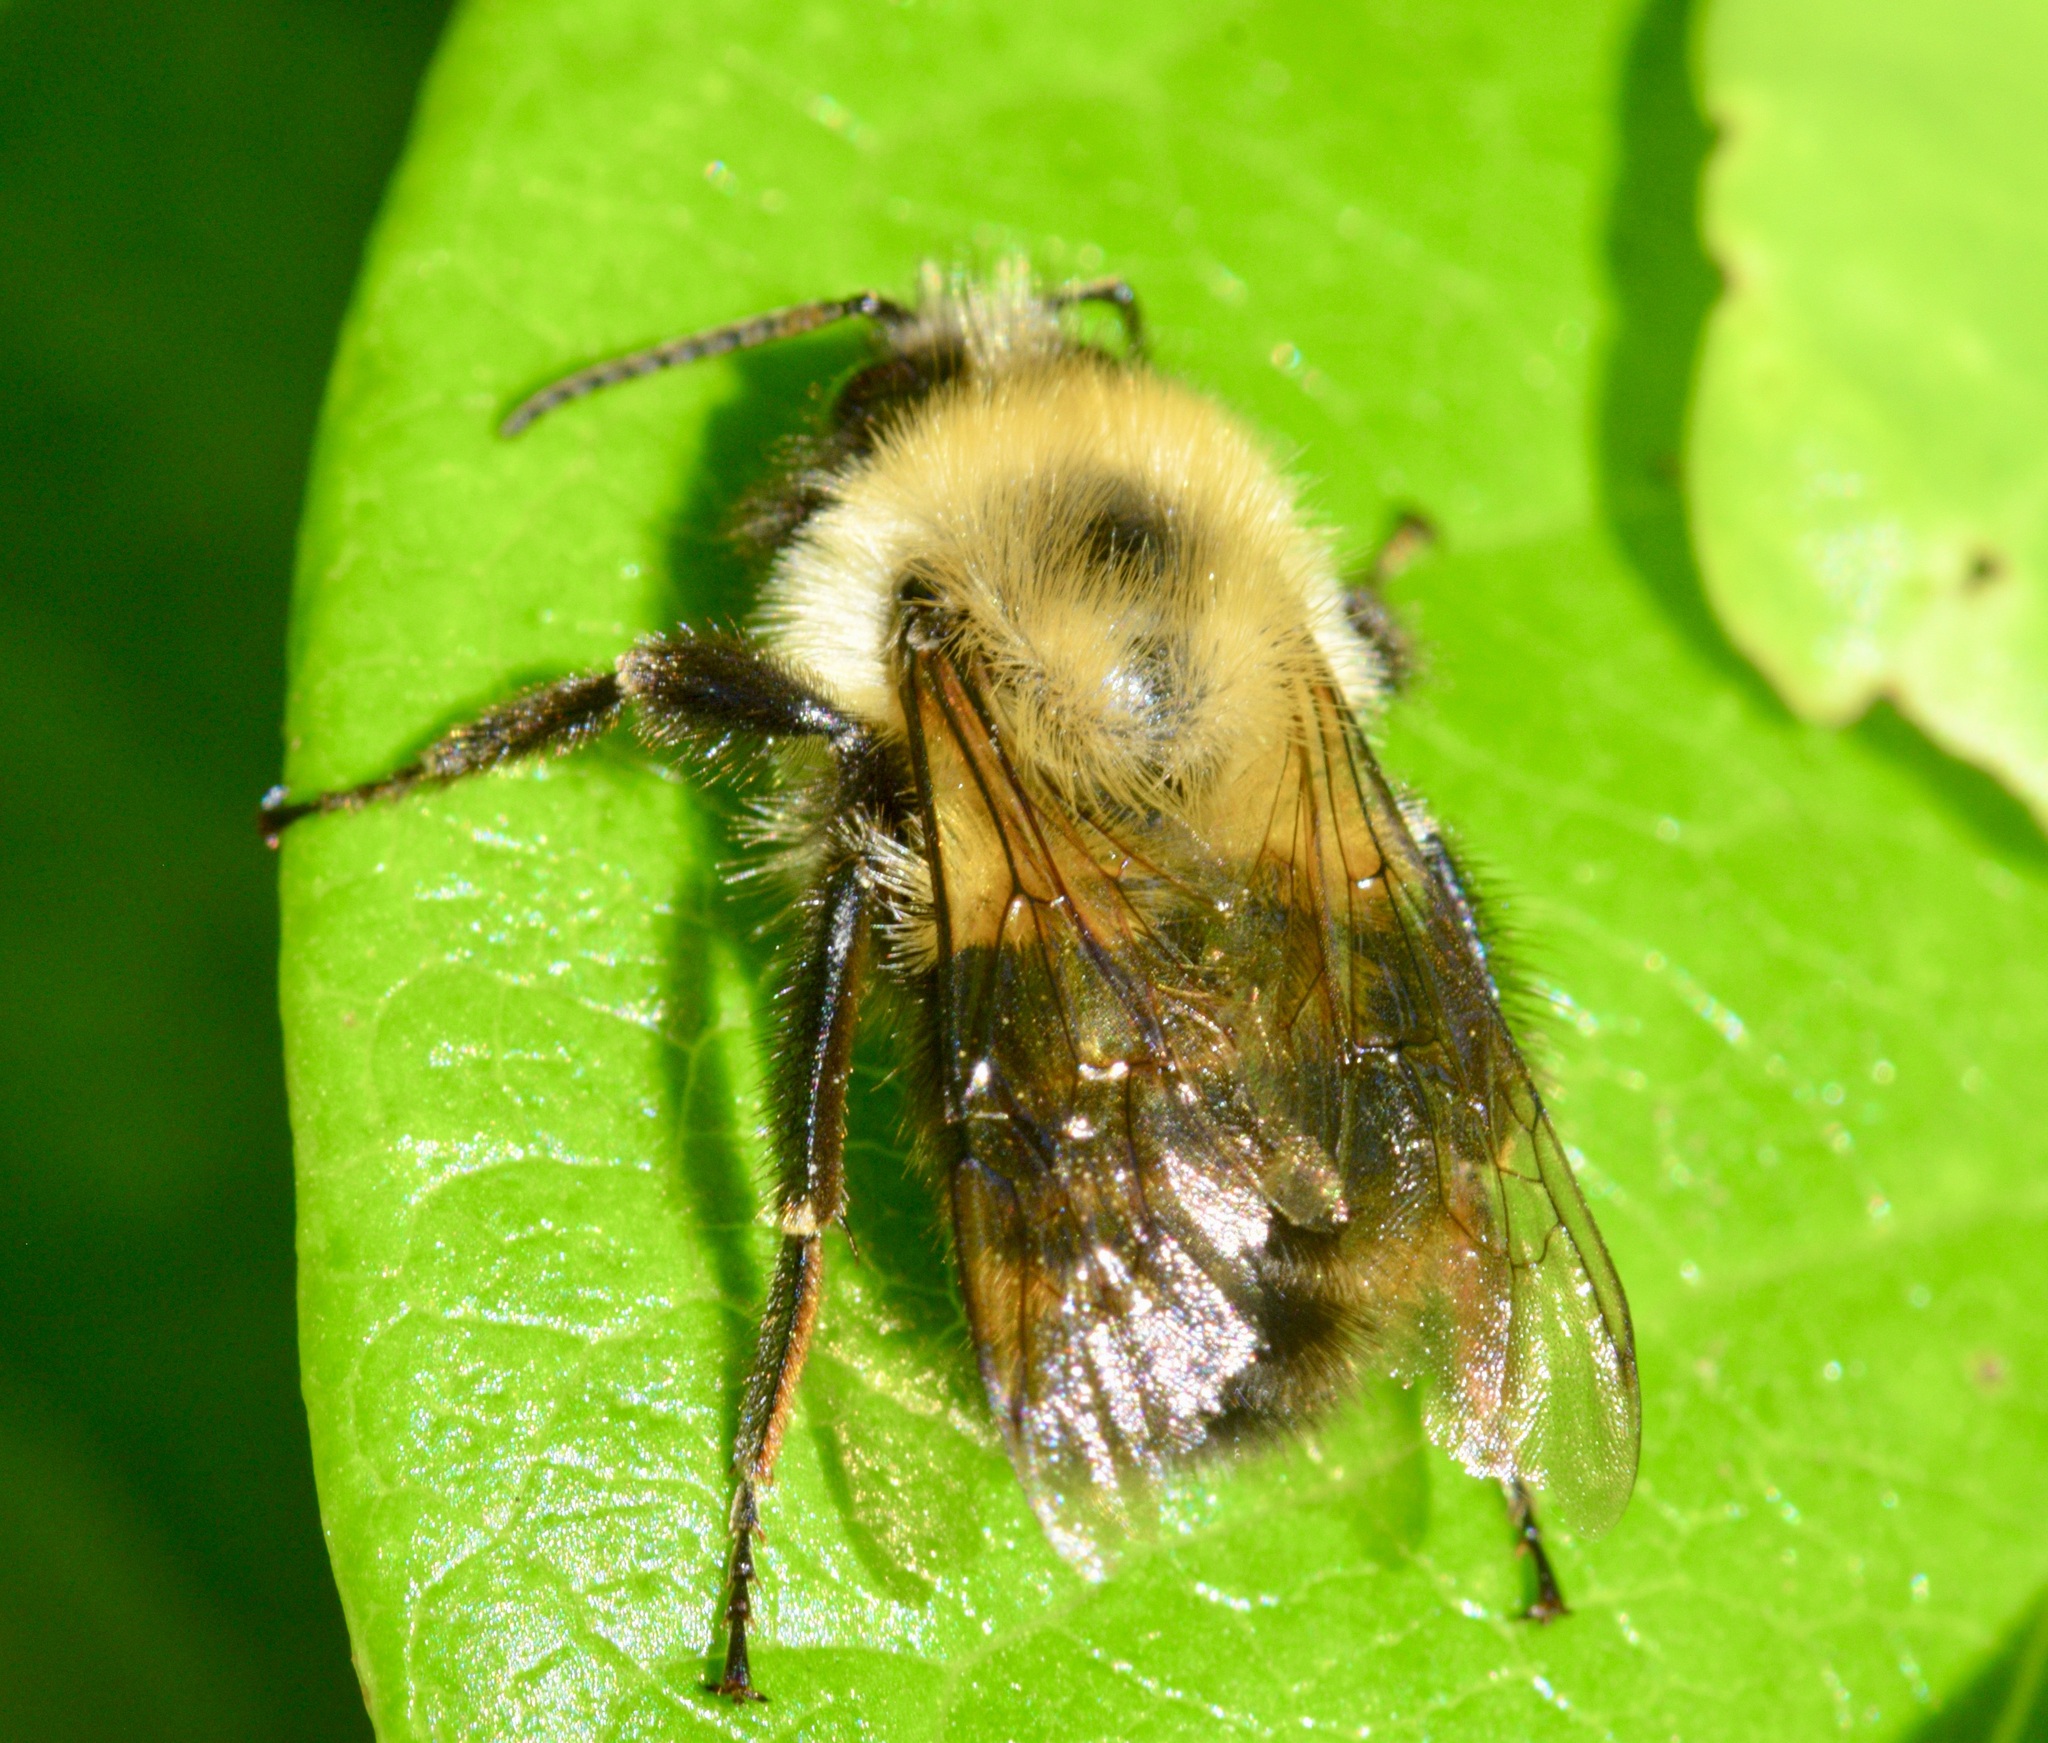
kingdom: Animalia
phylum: Arthropoda
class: Insecta
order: Hymenoptera
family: Apidae
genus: Bombus
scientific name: Bombus bimaculatus
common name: Two-spotted bumble bee
